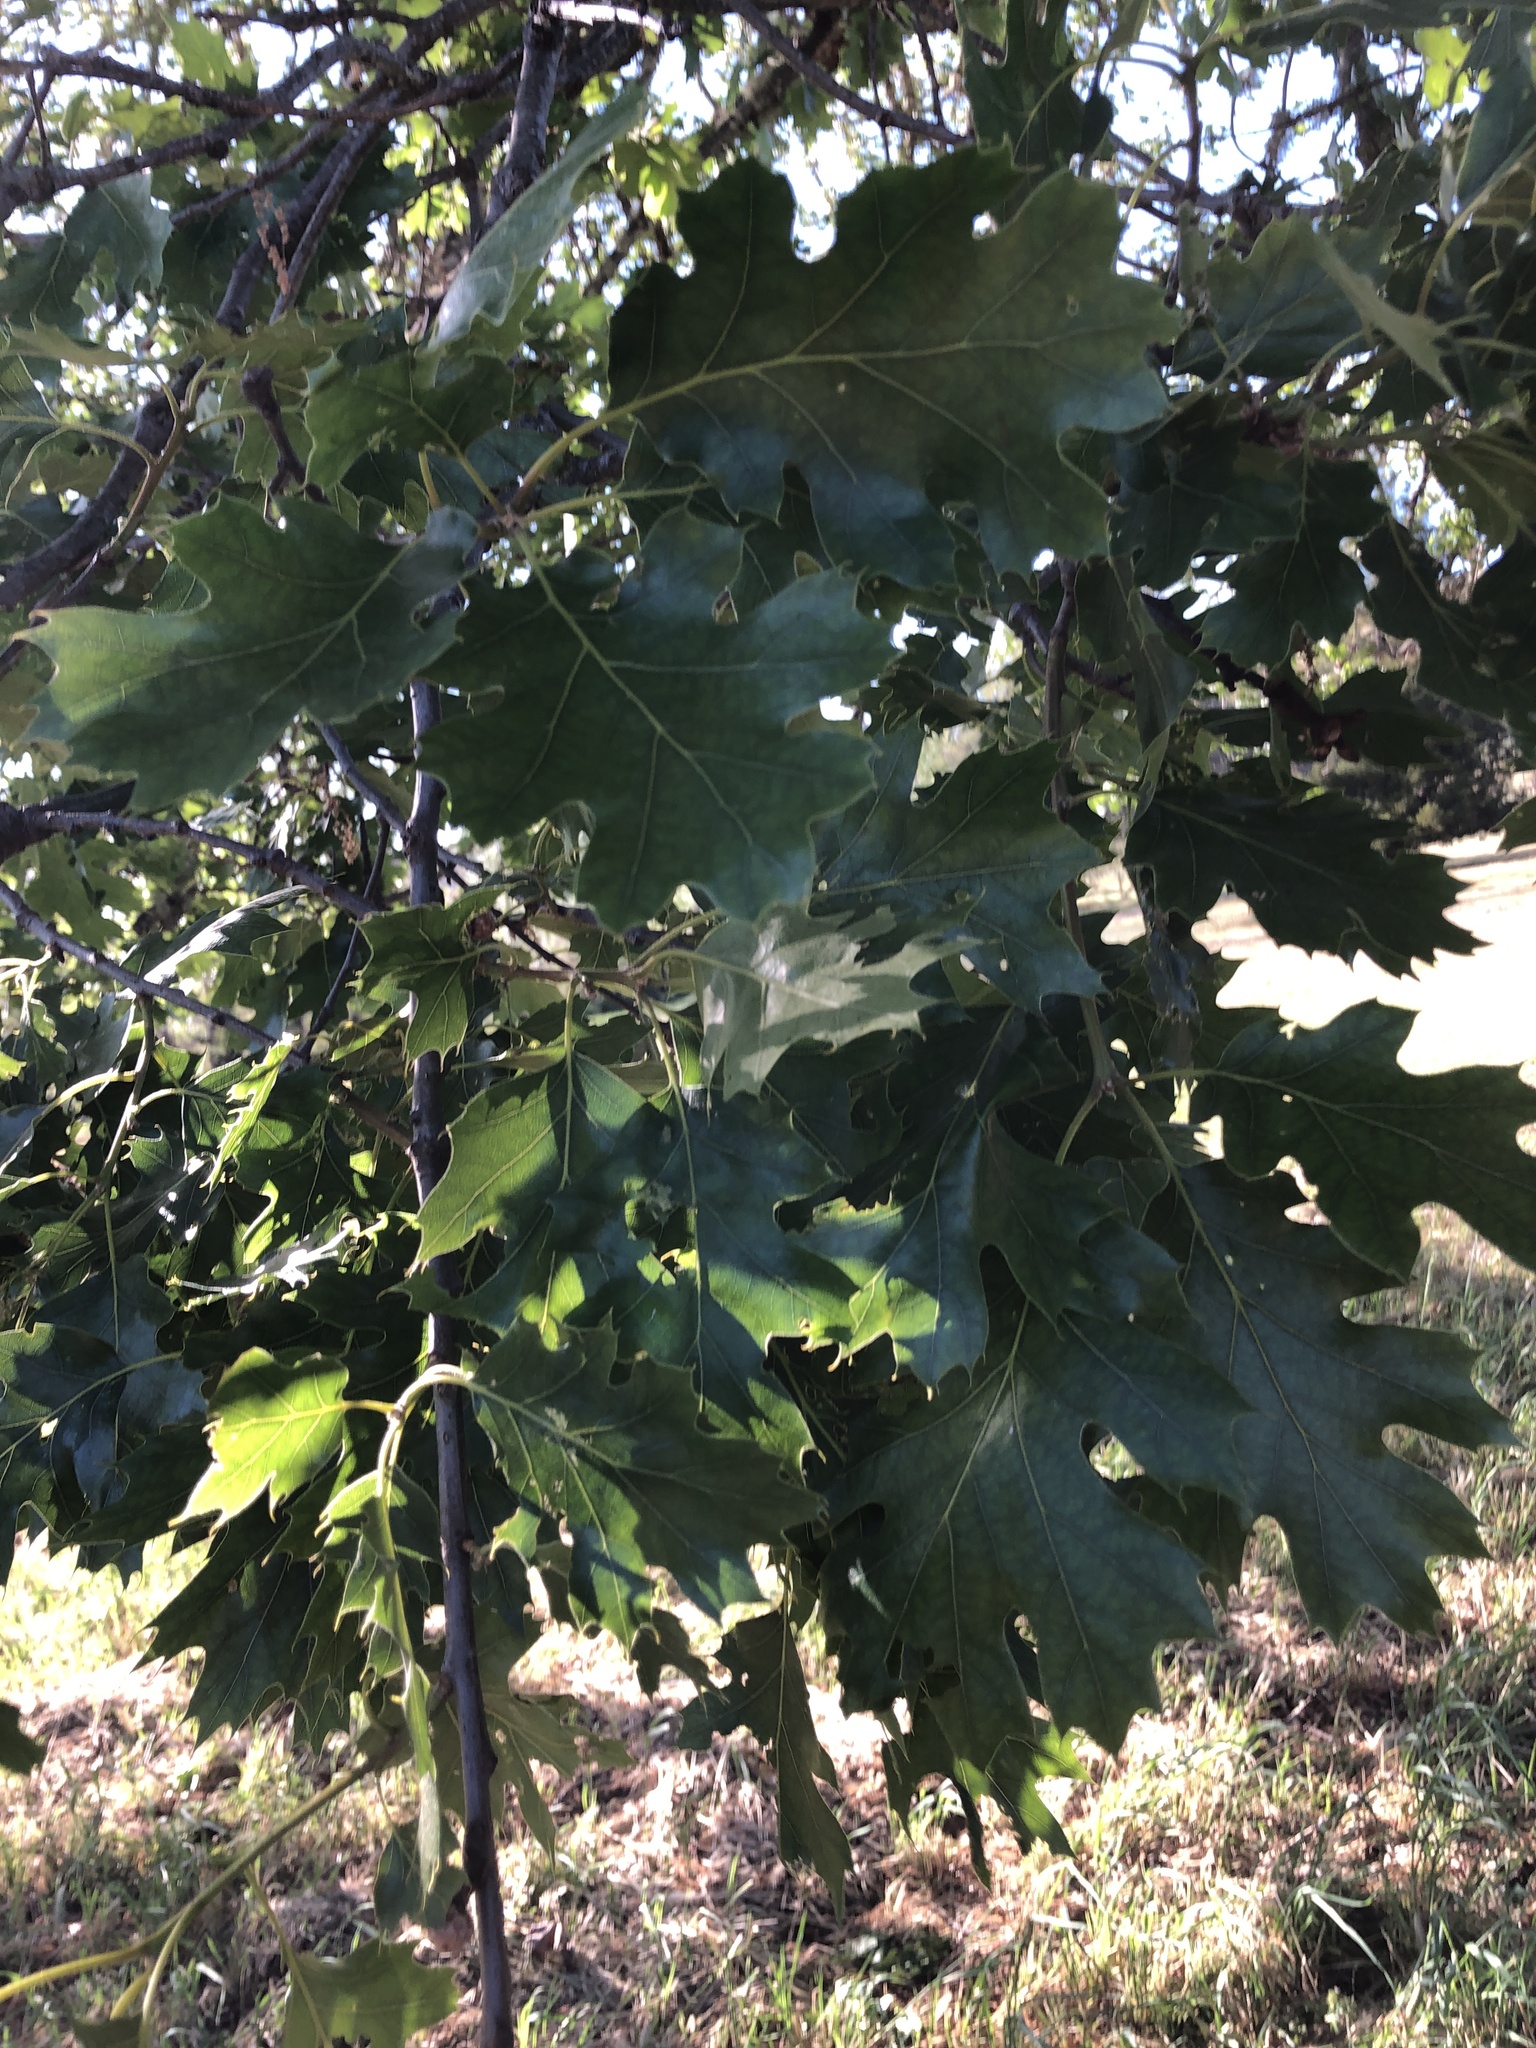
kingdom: Plantae
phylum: Tracheophyta
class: Magnoliopsida
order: Fagales
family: Fagaceae
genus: Quercus
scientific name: Quercus kelloggii
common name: California black oak
